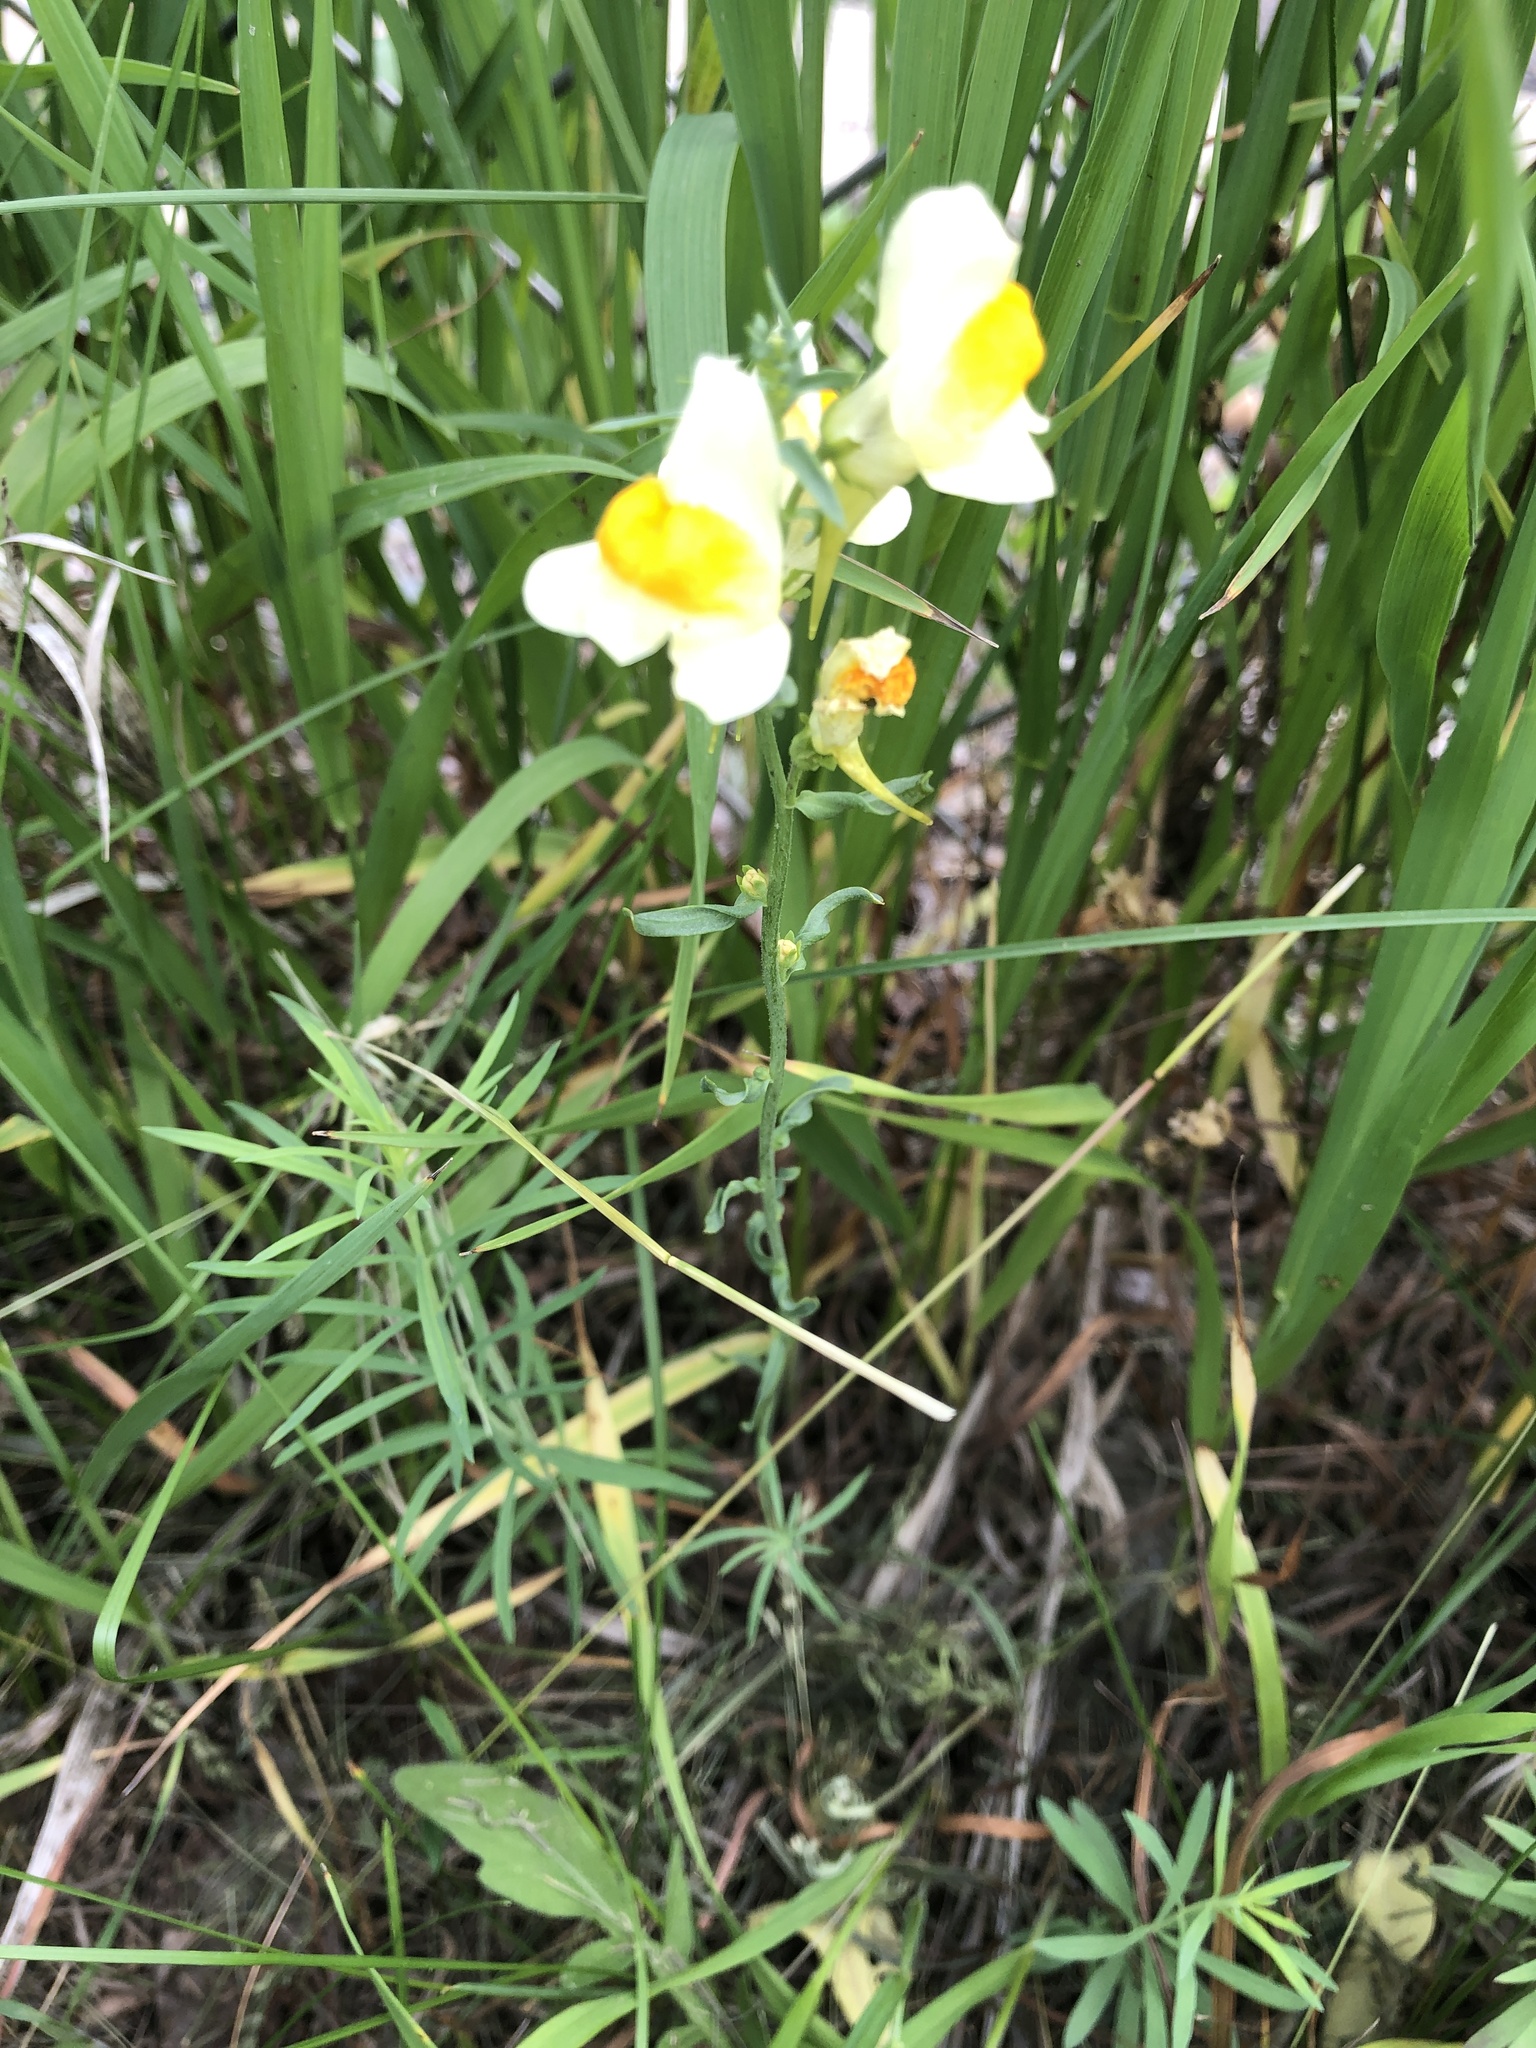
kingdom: Plantae
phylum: Tracheophyta
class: Magnoliopsida
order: Lamiales
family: Plantaginaceae
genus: Linaria
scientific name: Linaria vulgaris
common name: Butter and eggs
